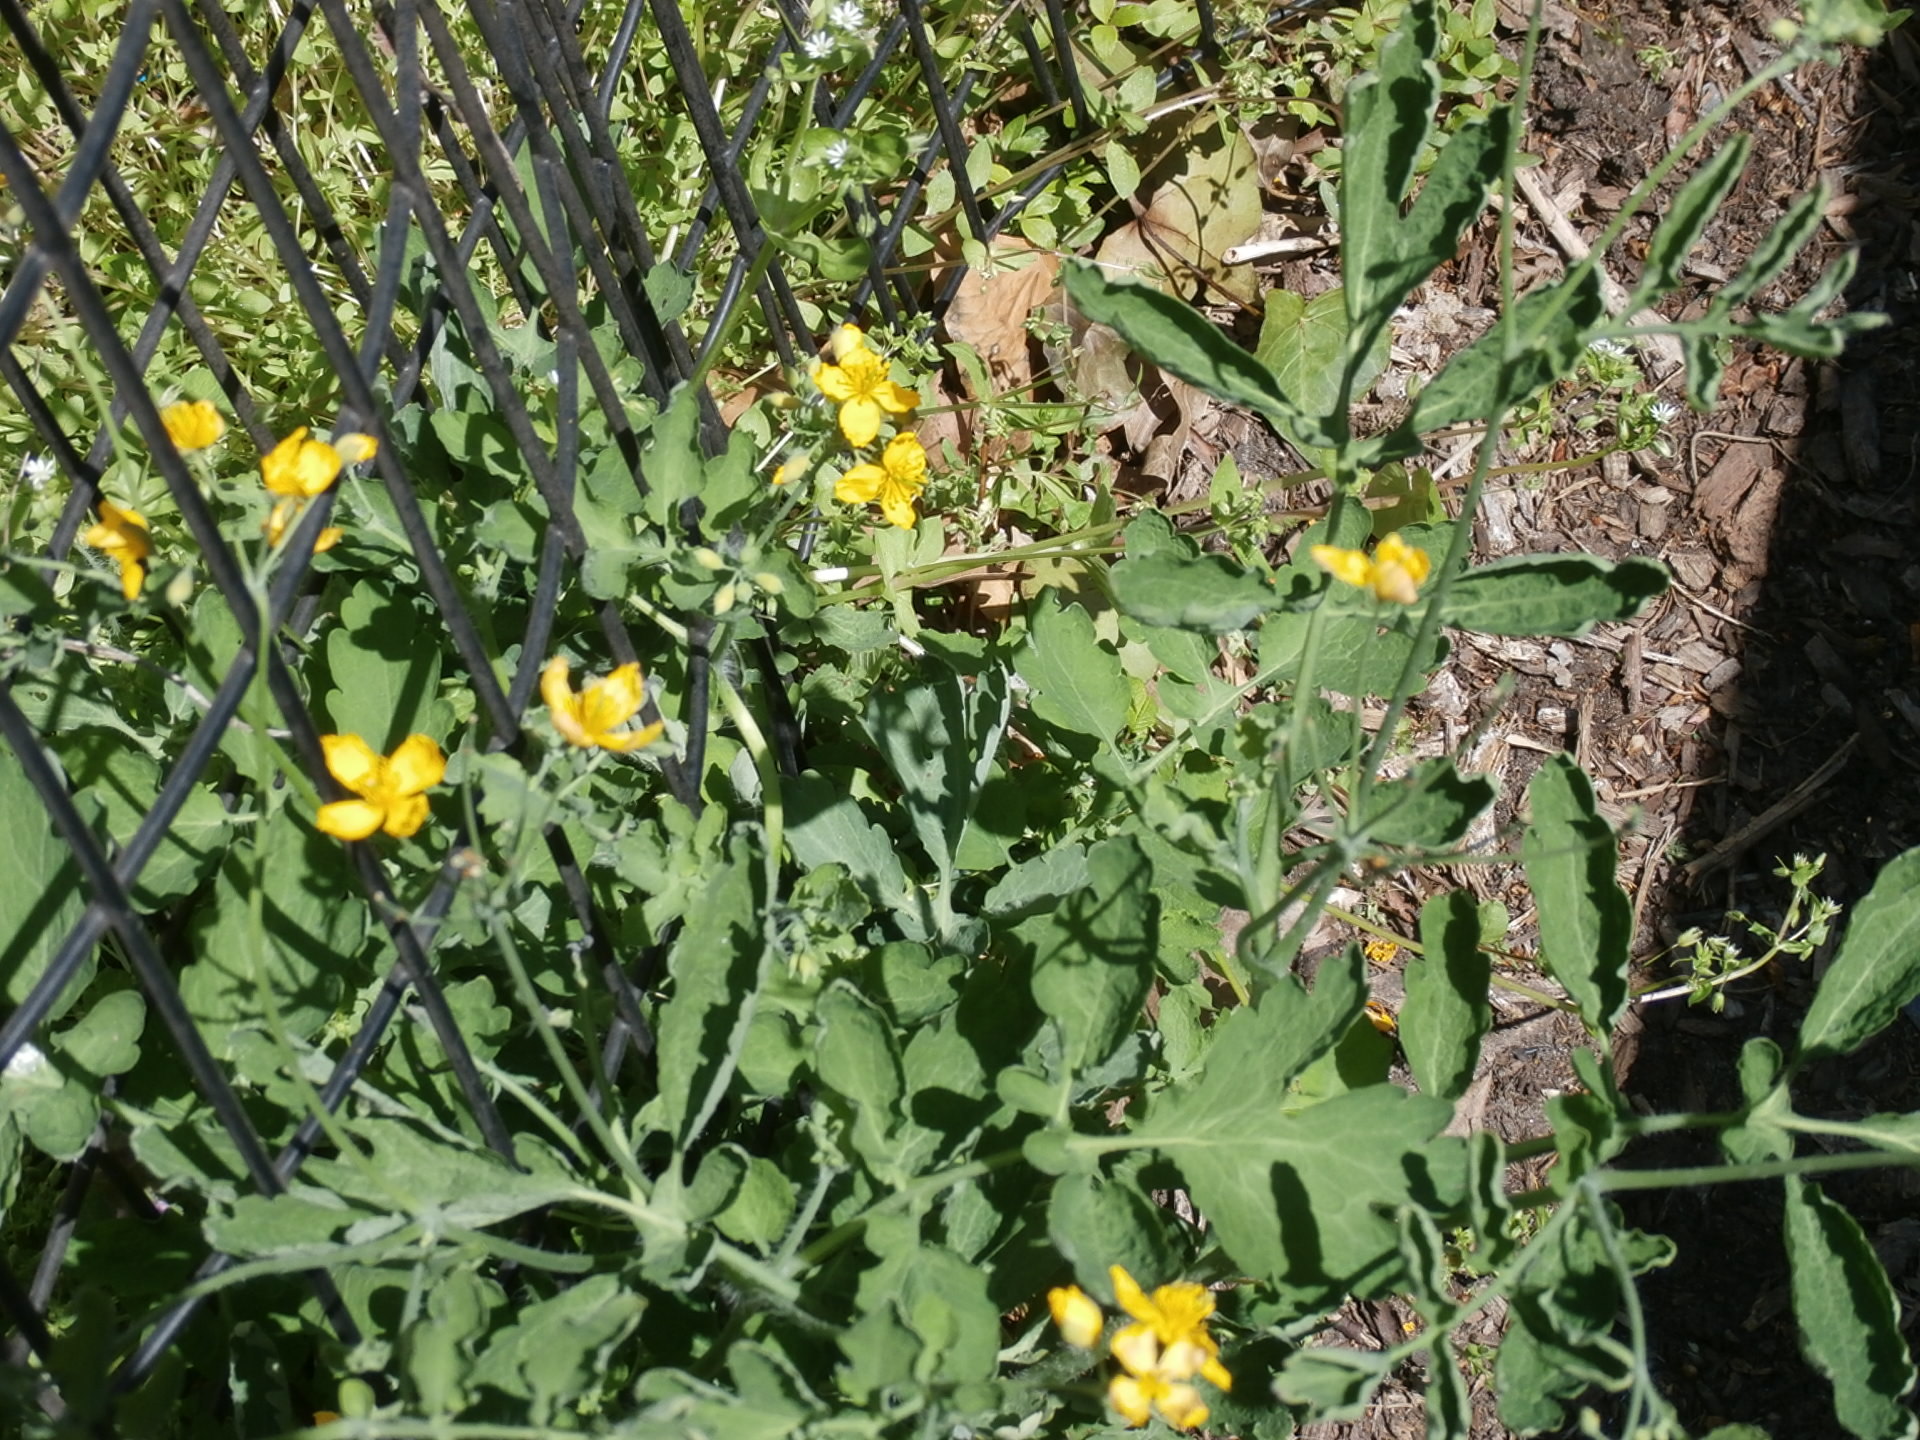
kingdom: Plantae
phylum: Tracheophyta
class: Magnoliopsida
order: Ranunculales
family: Papaveraceae
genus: Chelidonium
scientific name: Chelidonium majus
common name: Greater celandine
